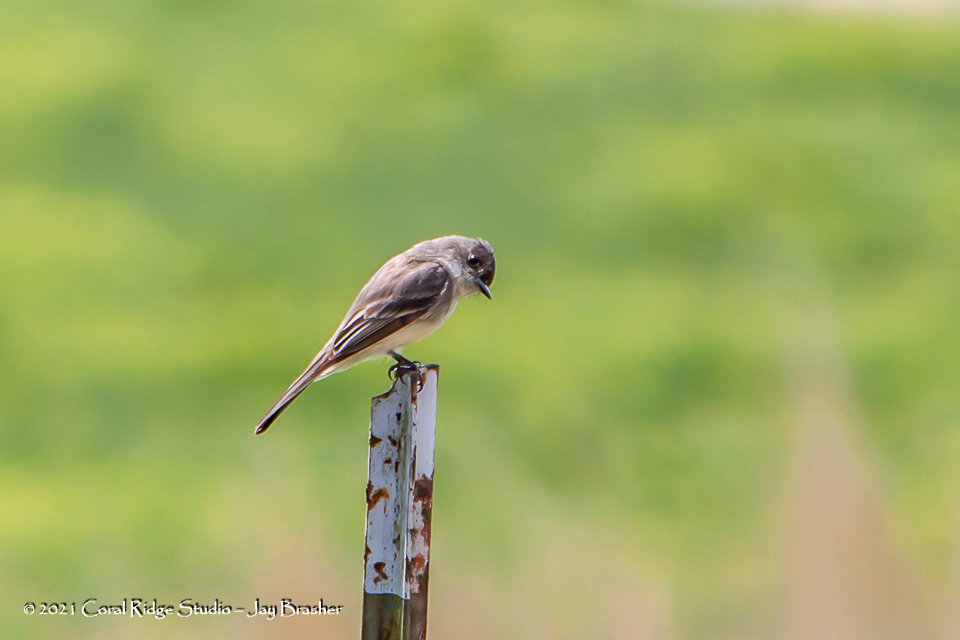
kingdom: Animalia
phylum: Chordata
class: Aves
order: Passeriformes
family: Tyrannidae
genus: Sayornis
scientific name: Sayornis phoebe
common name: Eastern phoebe
